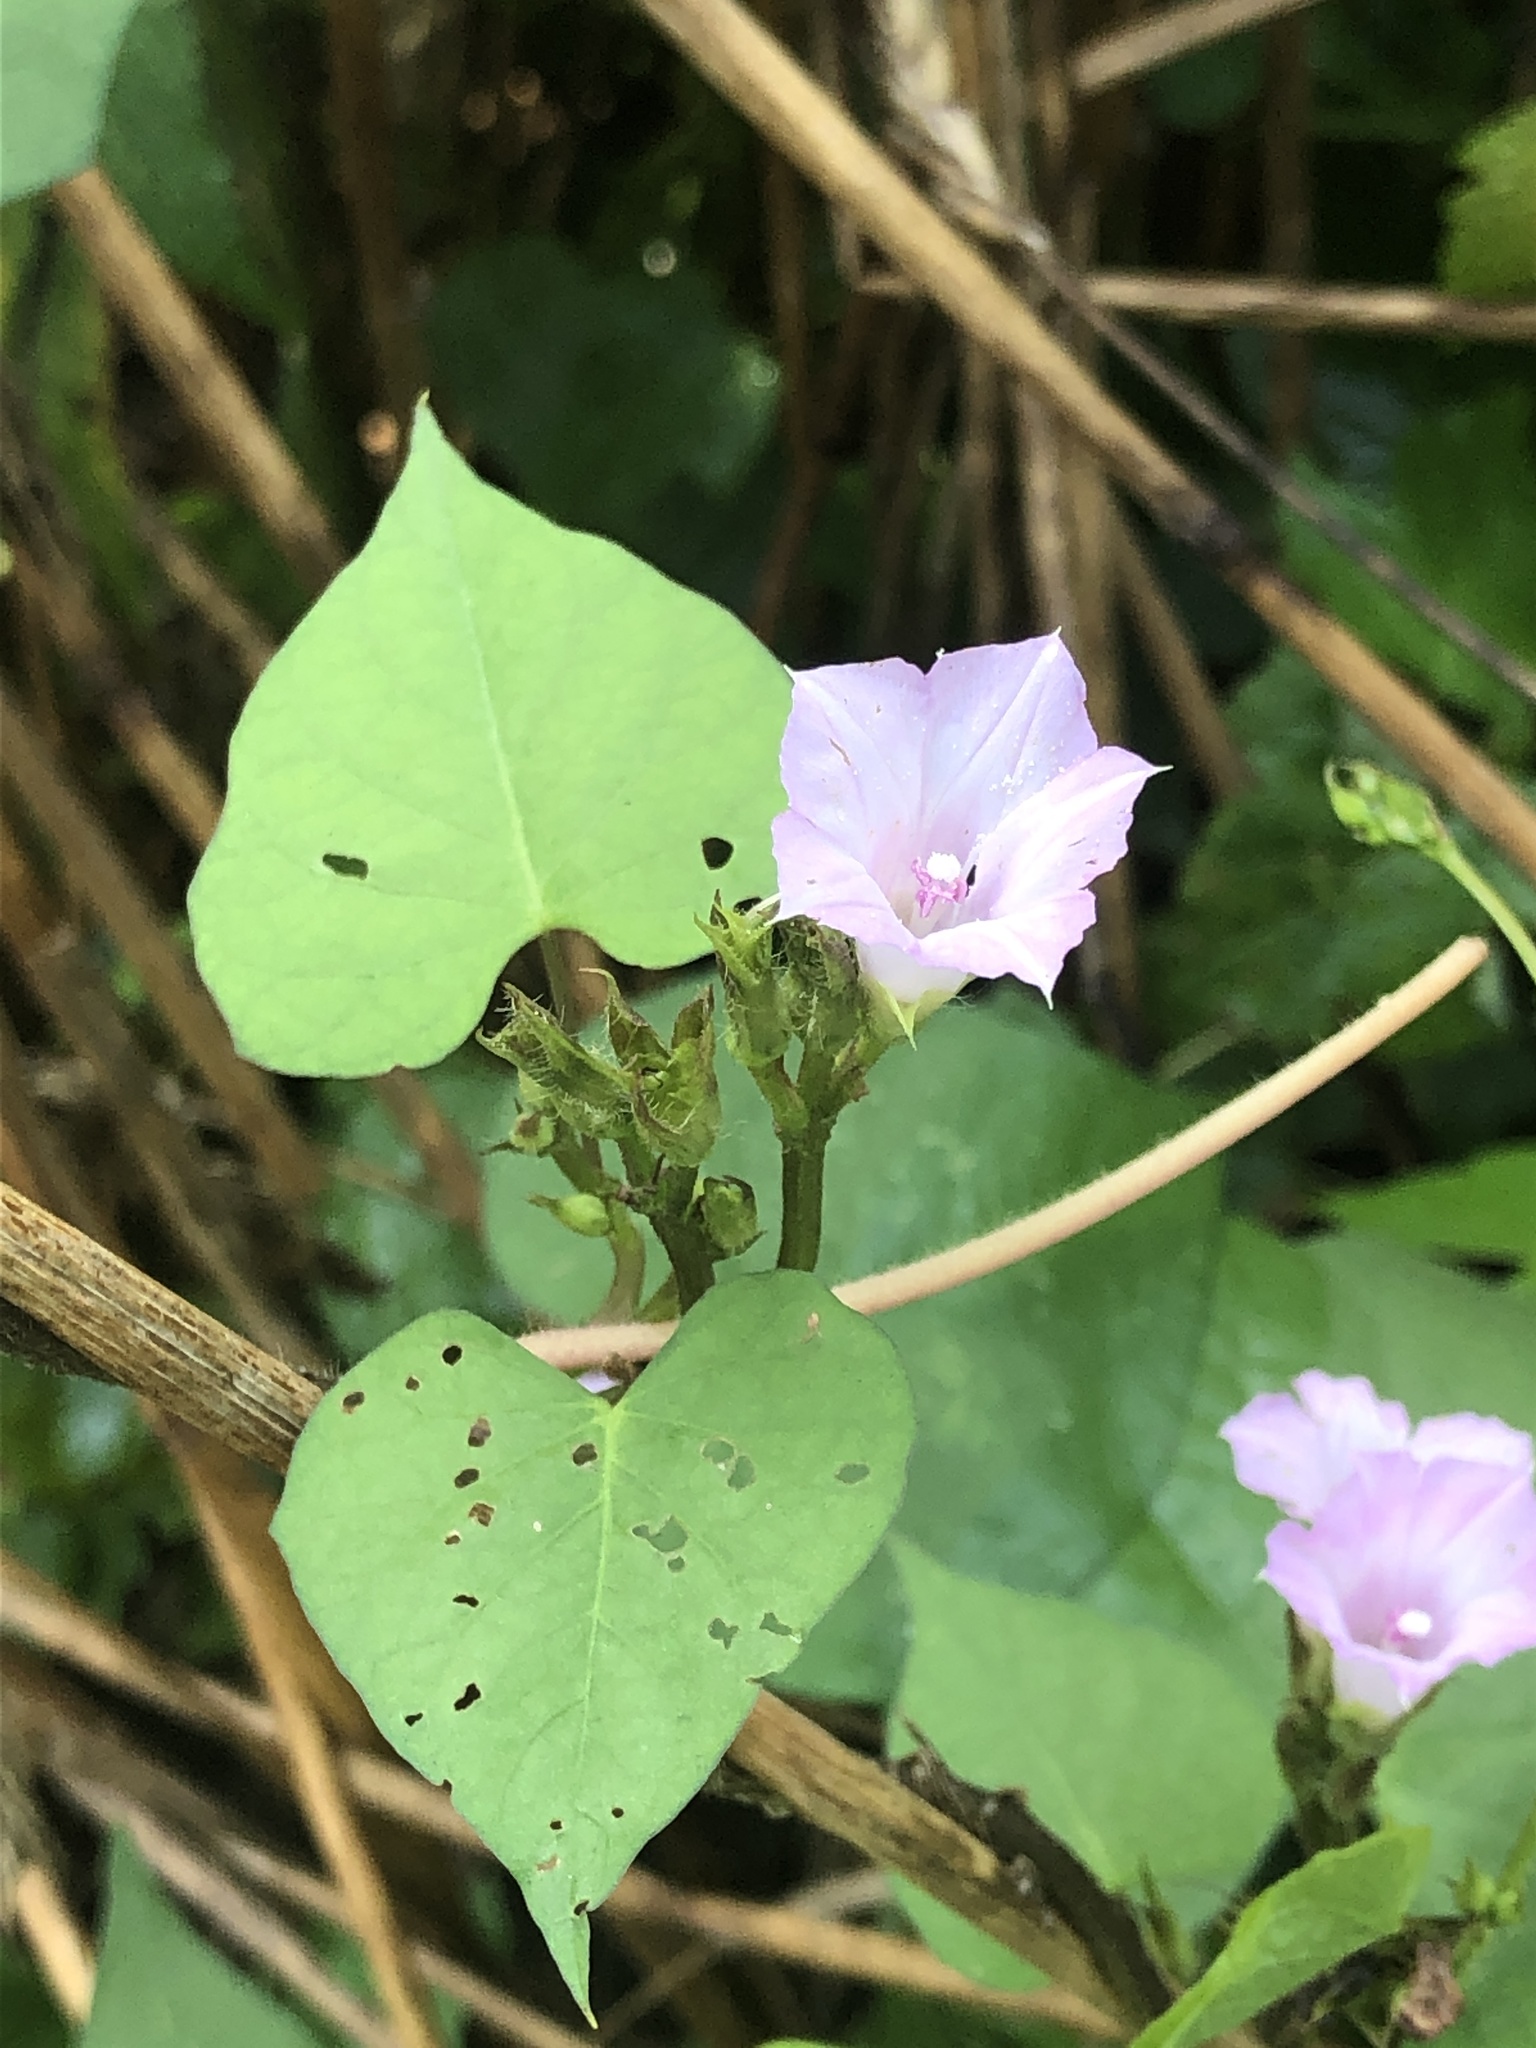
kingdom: Plantae
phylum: Tracheophyta
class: Magnoliopsida
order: Solanales
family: Convolvulaceae
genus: Ipomoea
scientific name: Ipomoea lacunosa
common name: White morning-glory
